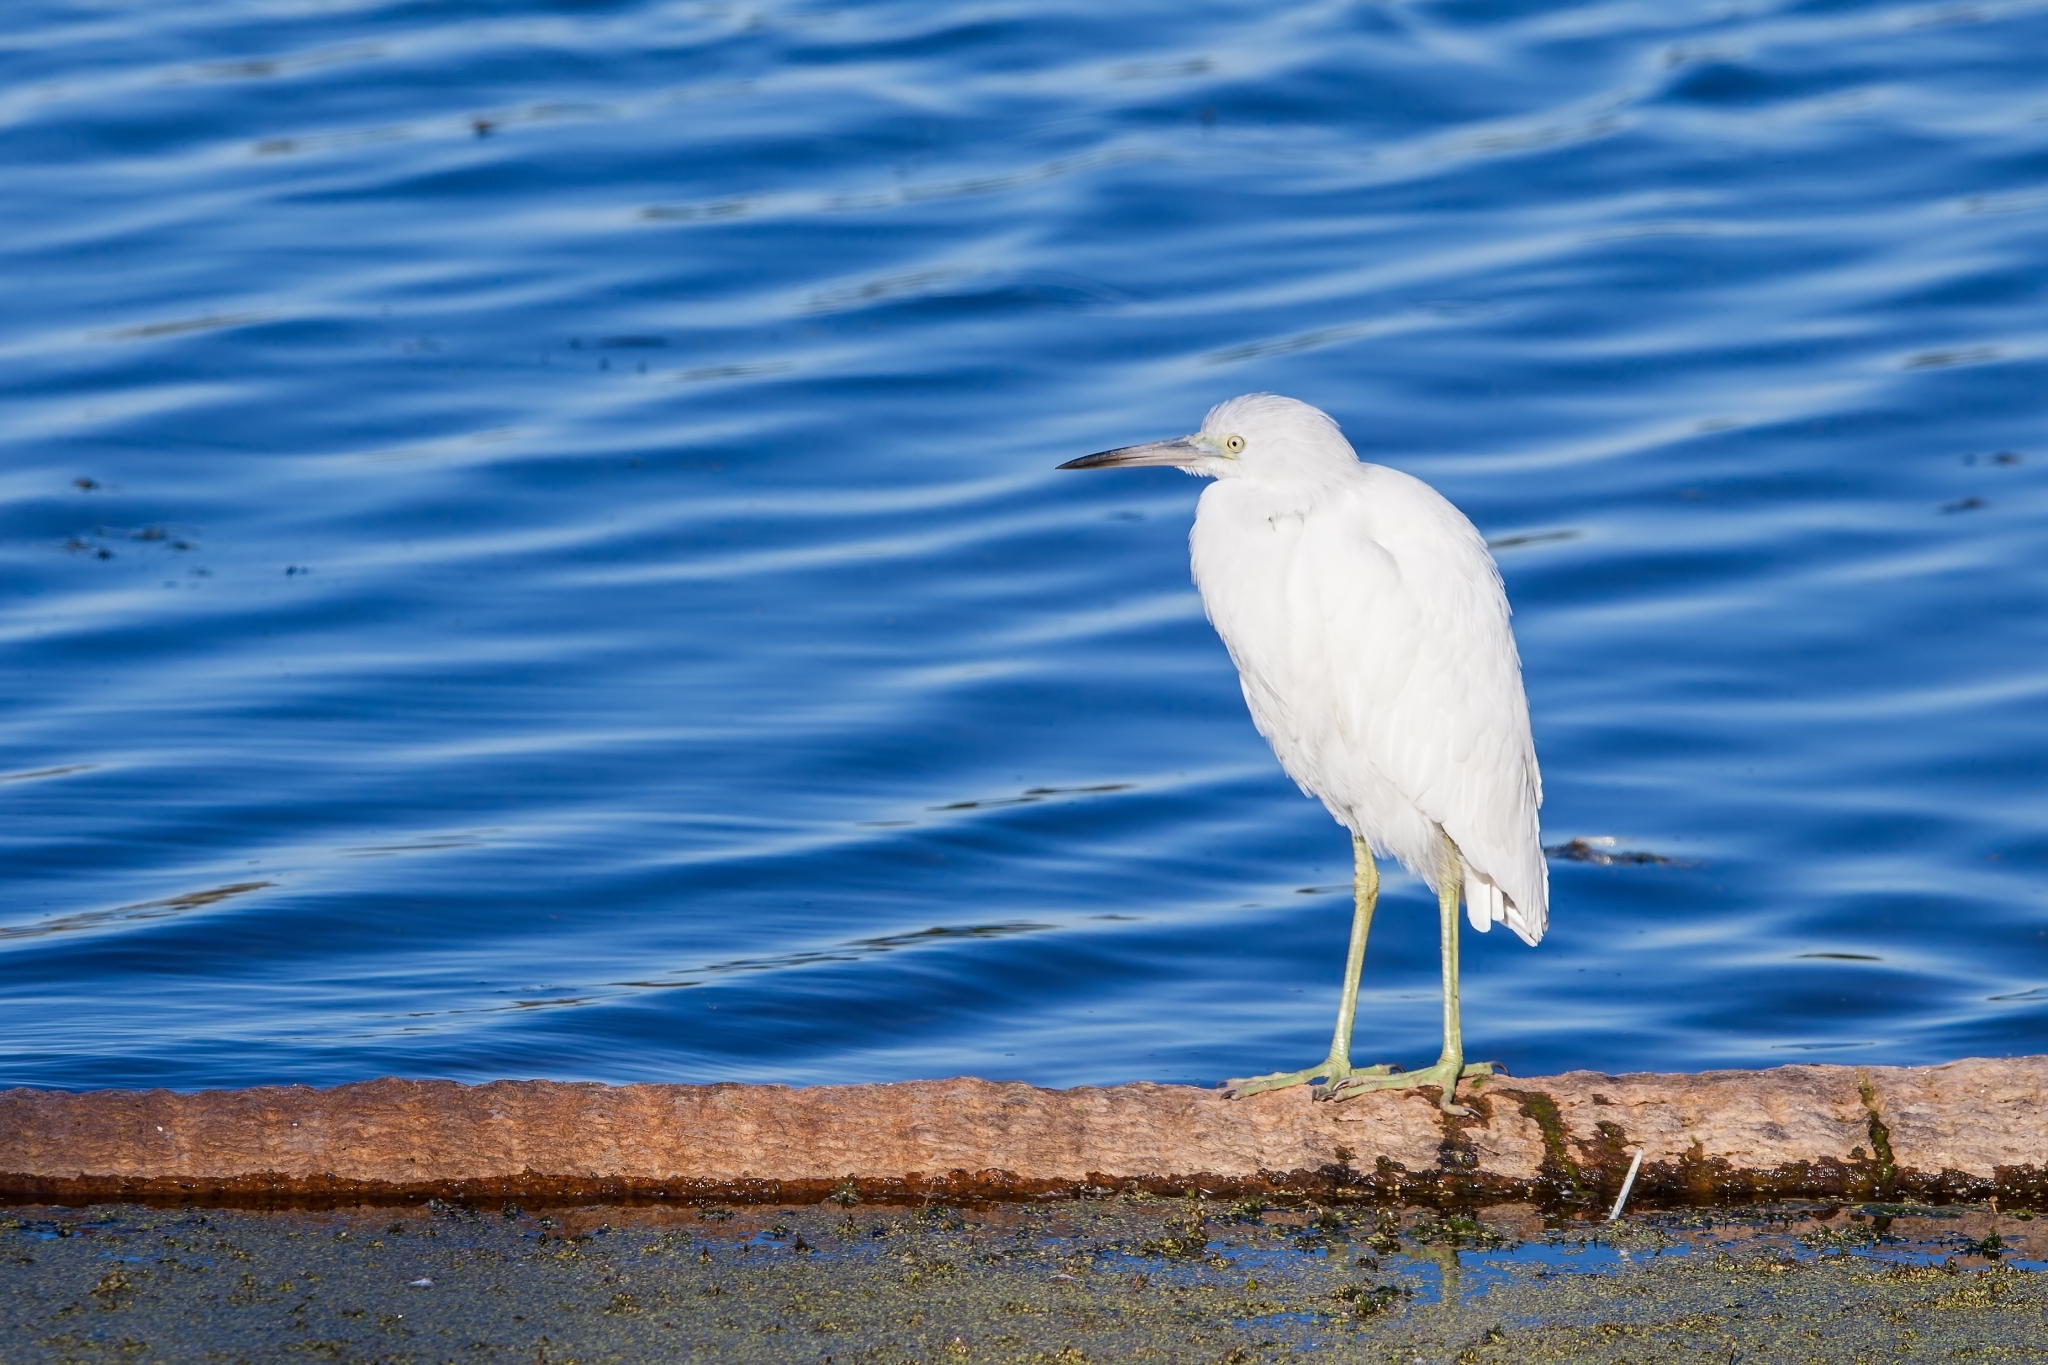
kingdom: Animalia
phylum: Chordata
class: Aves
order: Pelecaniformes
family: Ardeidae
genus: Egretta
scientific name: Egretta caerulea
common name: Little blue heron
